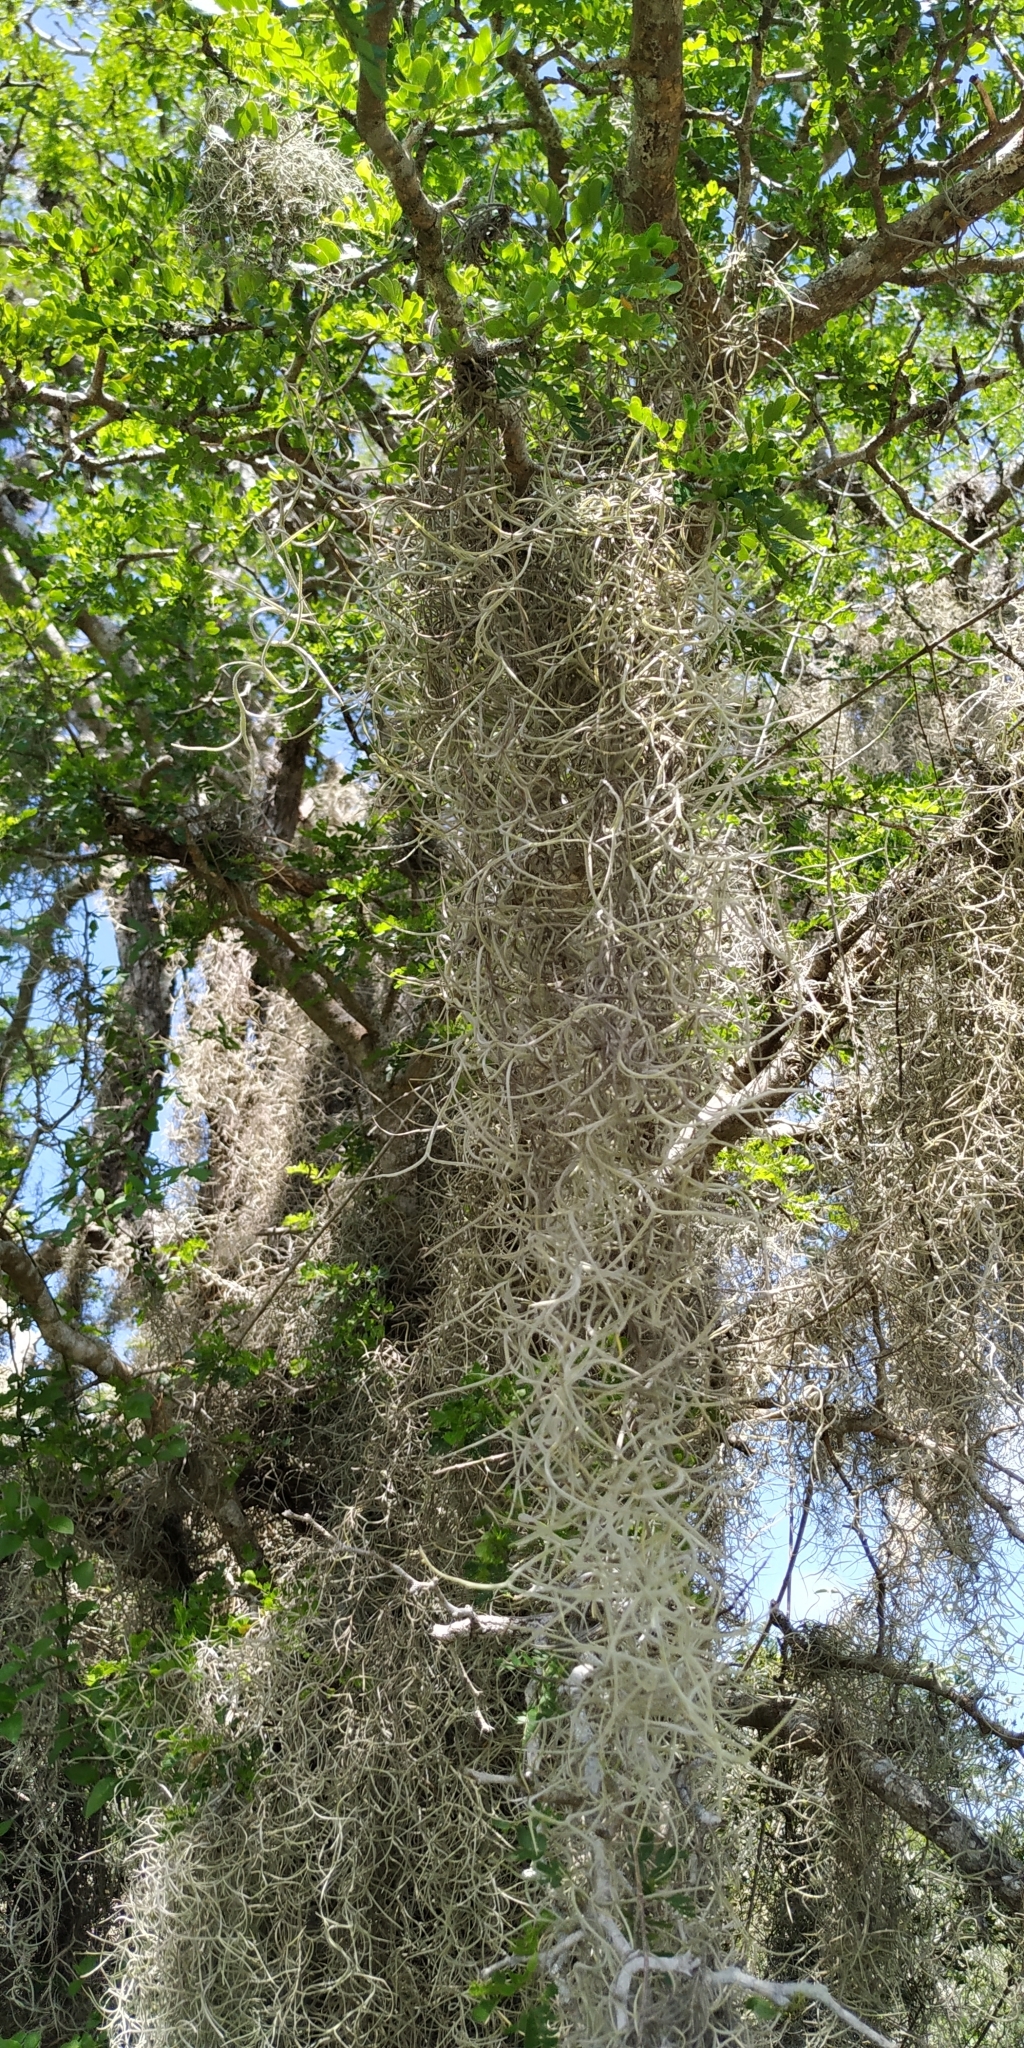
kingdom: Plantae
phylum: Tracheophyta
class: Liliopsida
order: Poales
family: Bromeliaceae
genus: Tillandsia
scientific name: Tillandsia usneoides
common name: Spanish moss
